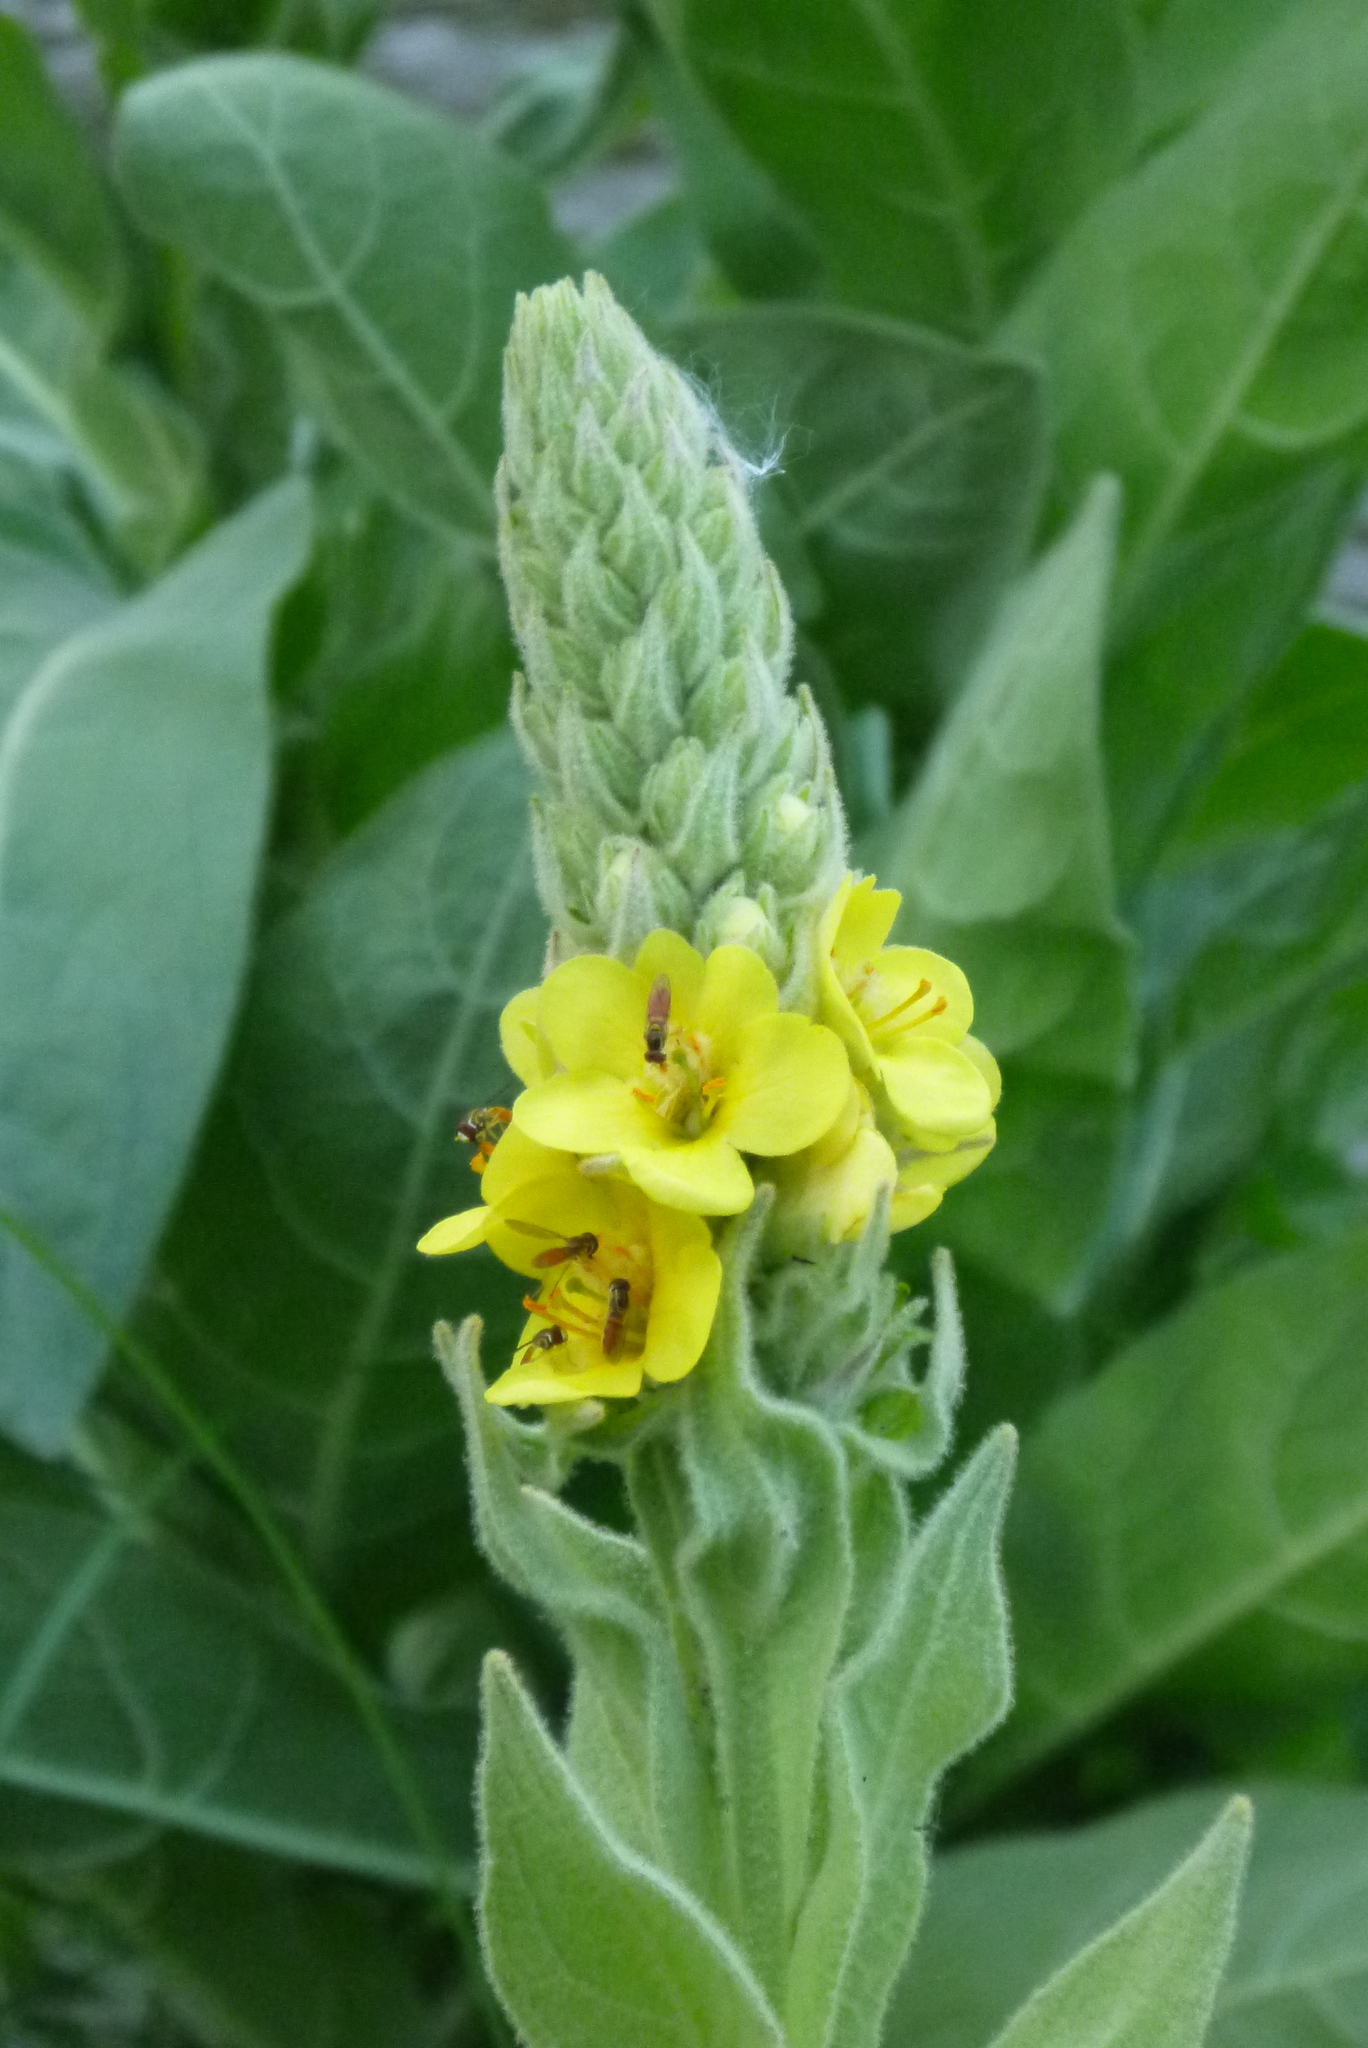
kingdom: Plantae
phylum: Tracheophyta
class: Magnoliopsida
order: Lamiales
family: Scrophulariaceae
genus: Verbascum
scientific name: Verbascum thapsus
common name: Common mullein
